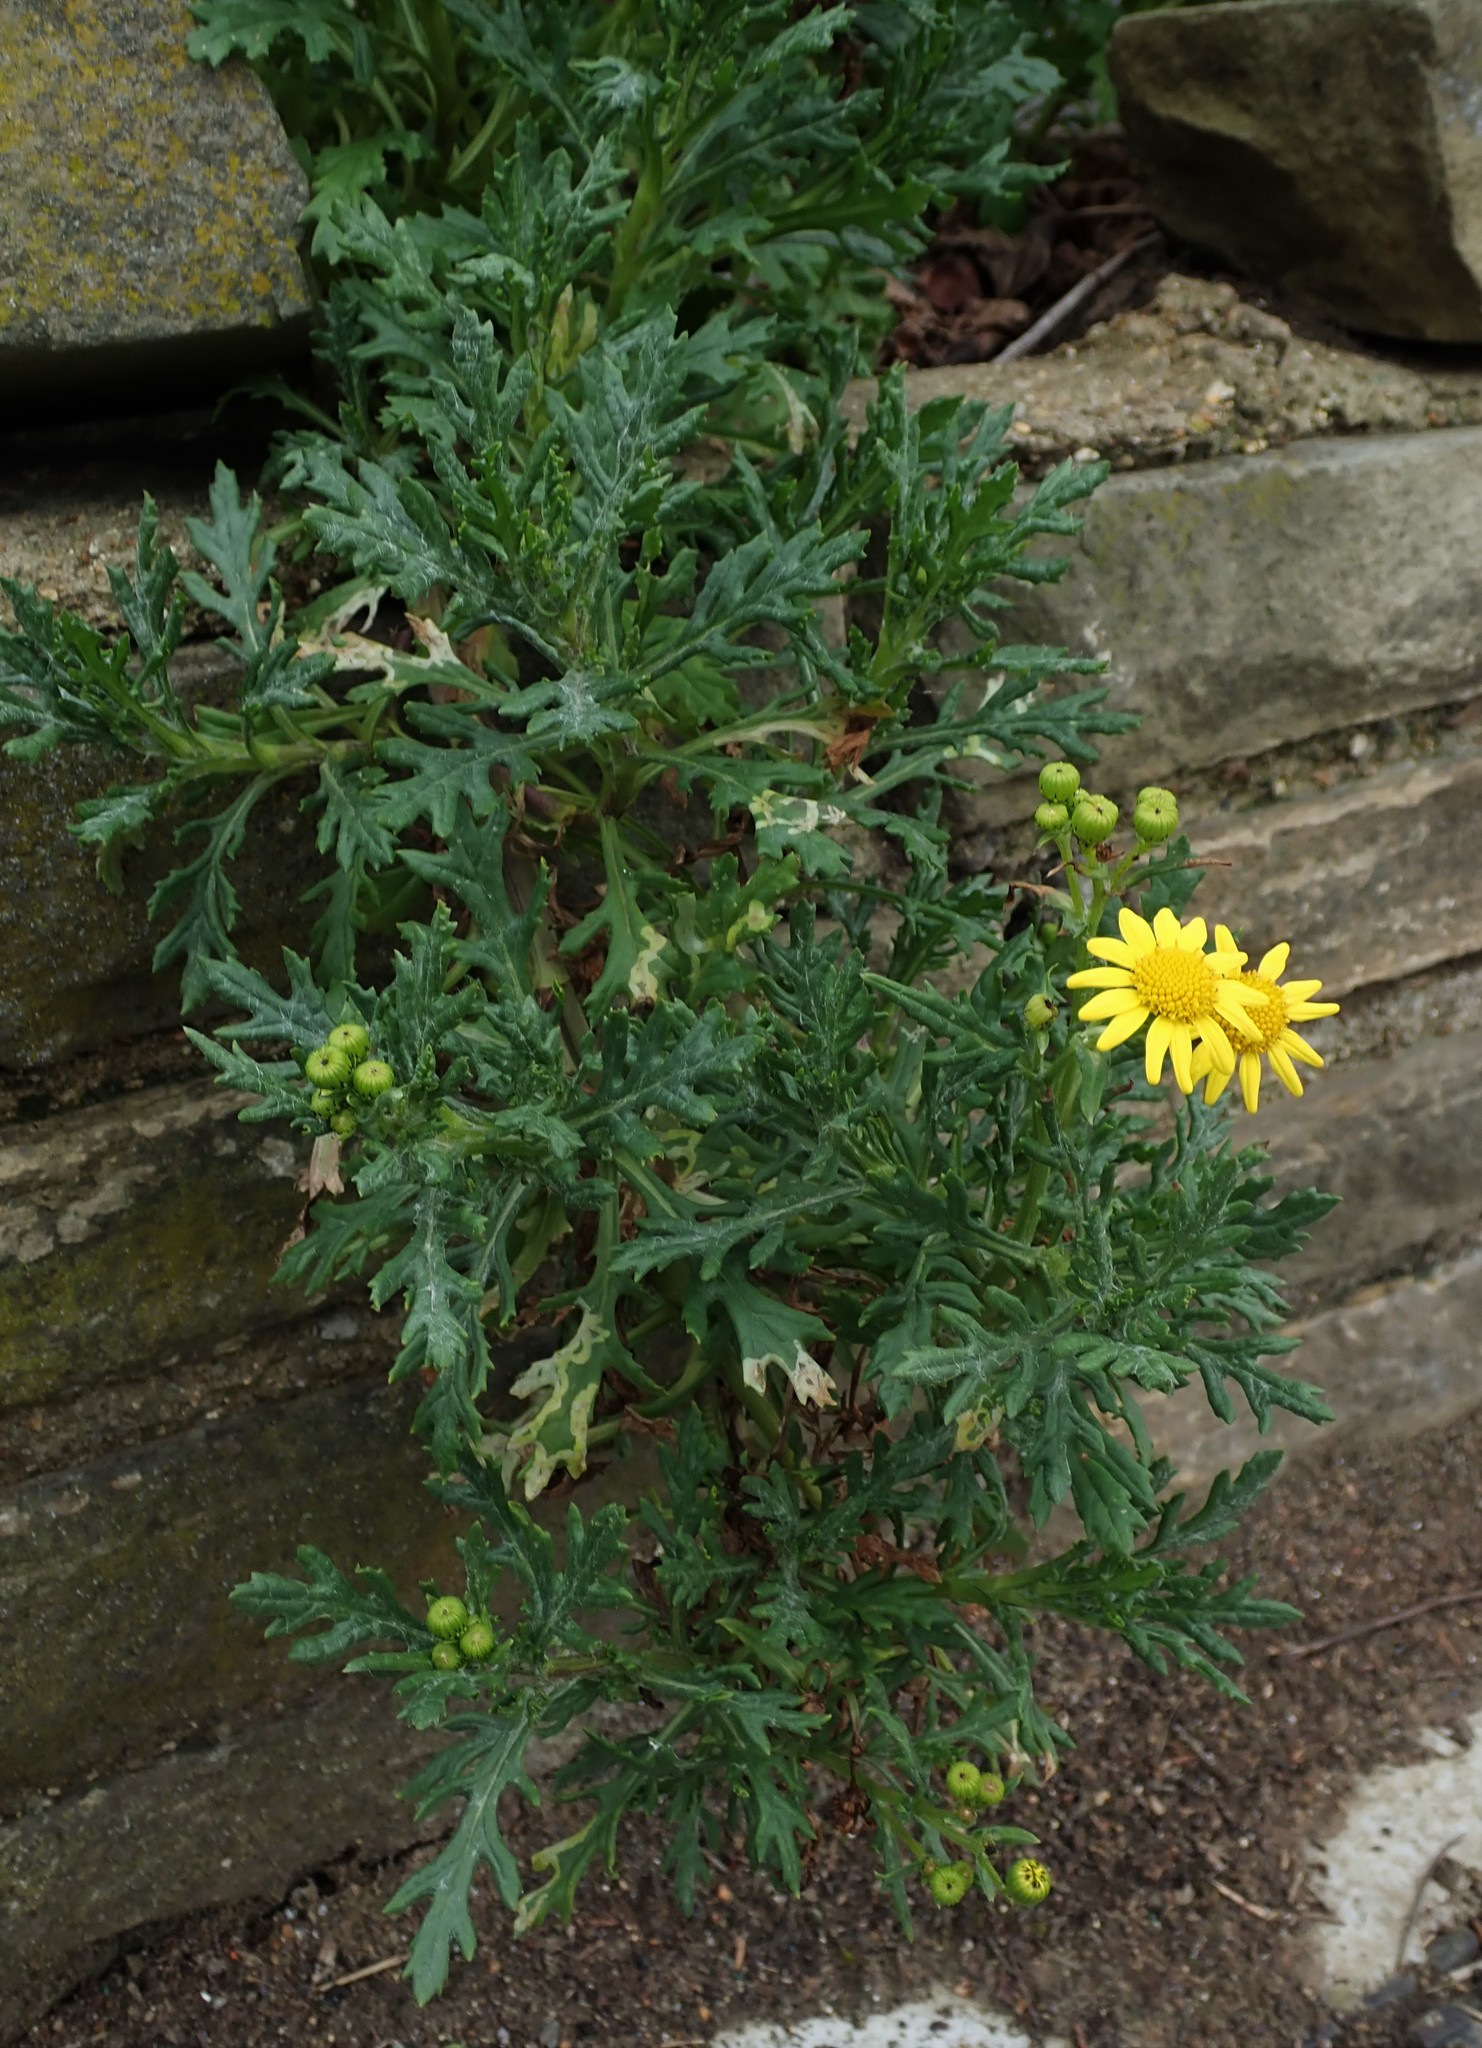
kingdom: Plantae
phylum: Tracheophyta
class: Magnoliopsida
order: Asterales
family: Asteraceae
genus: Senecio
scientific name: Senecio squalidus
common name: Oxford ragwort
